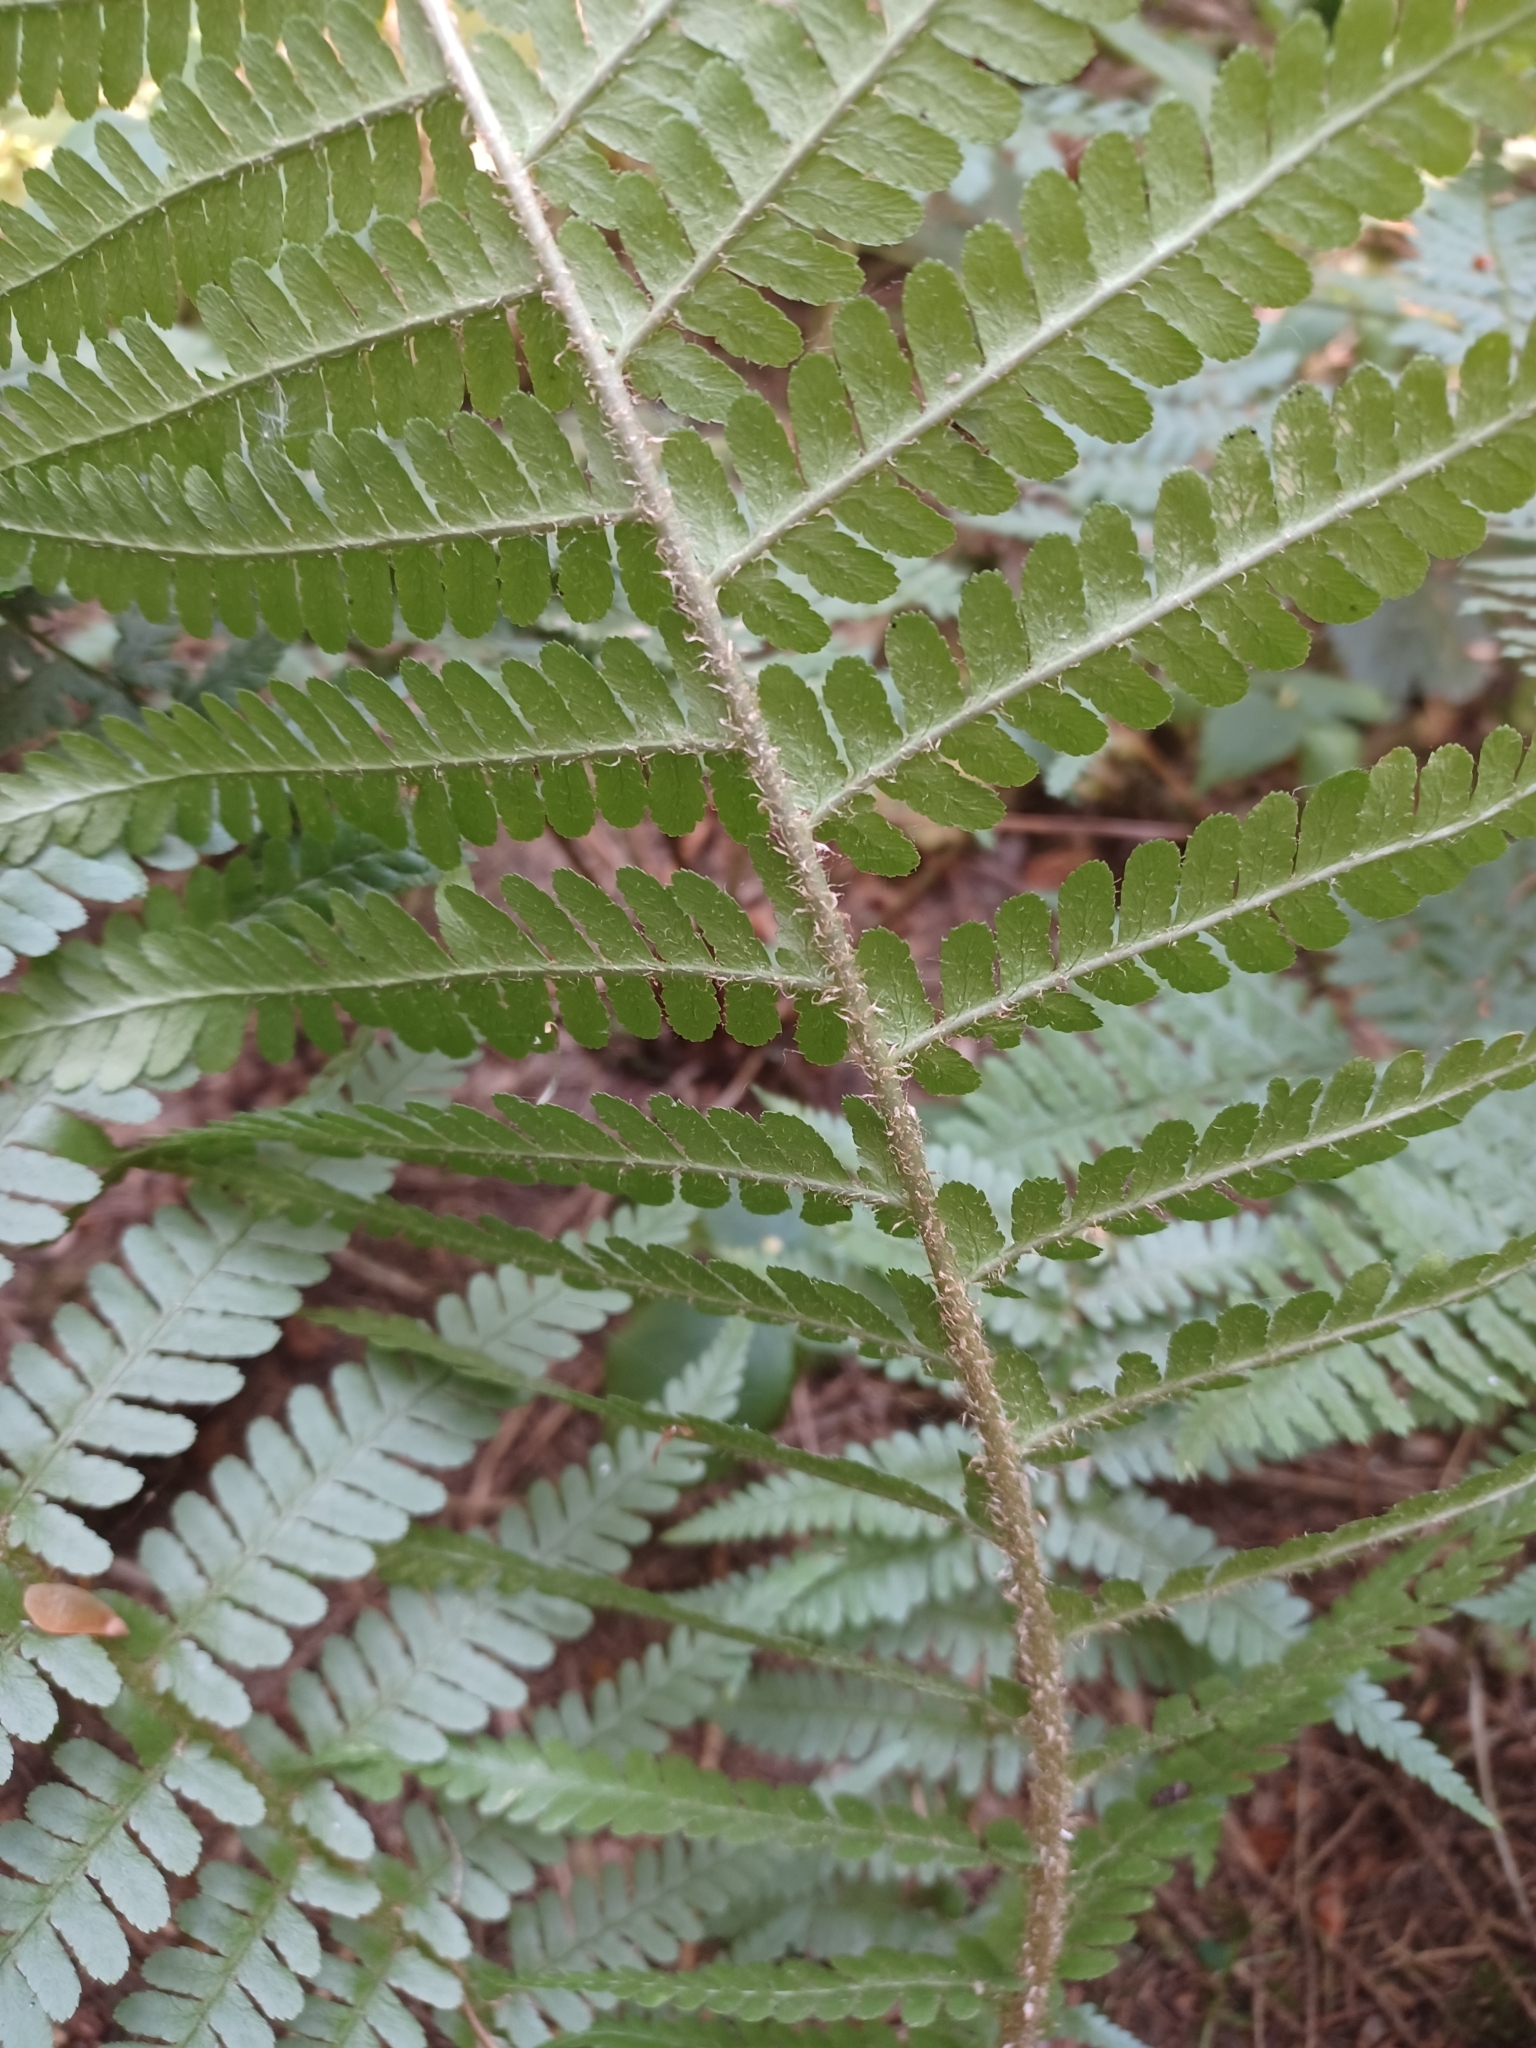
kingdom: Plantae
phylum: Tracheophyta
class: Polypodiopsida
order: Polypodiales
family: Dryopteridaceae
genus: Dryopteris
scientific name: Dryopteris filix-mas
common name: Male fern
